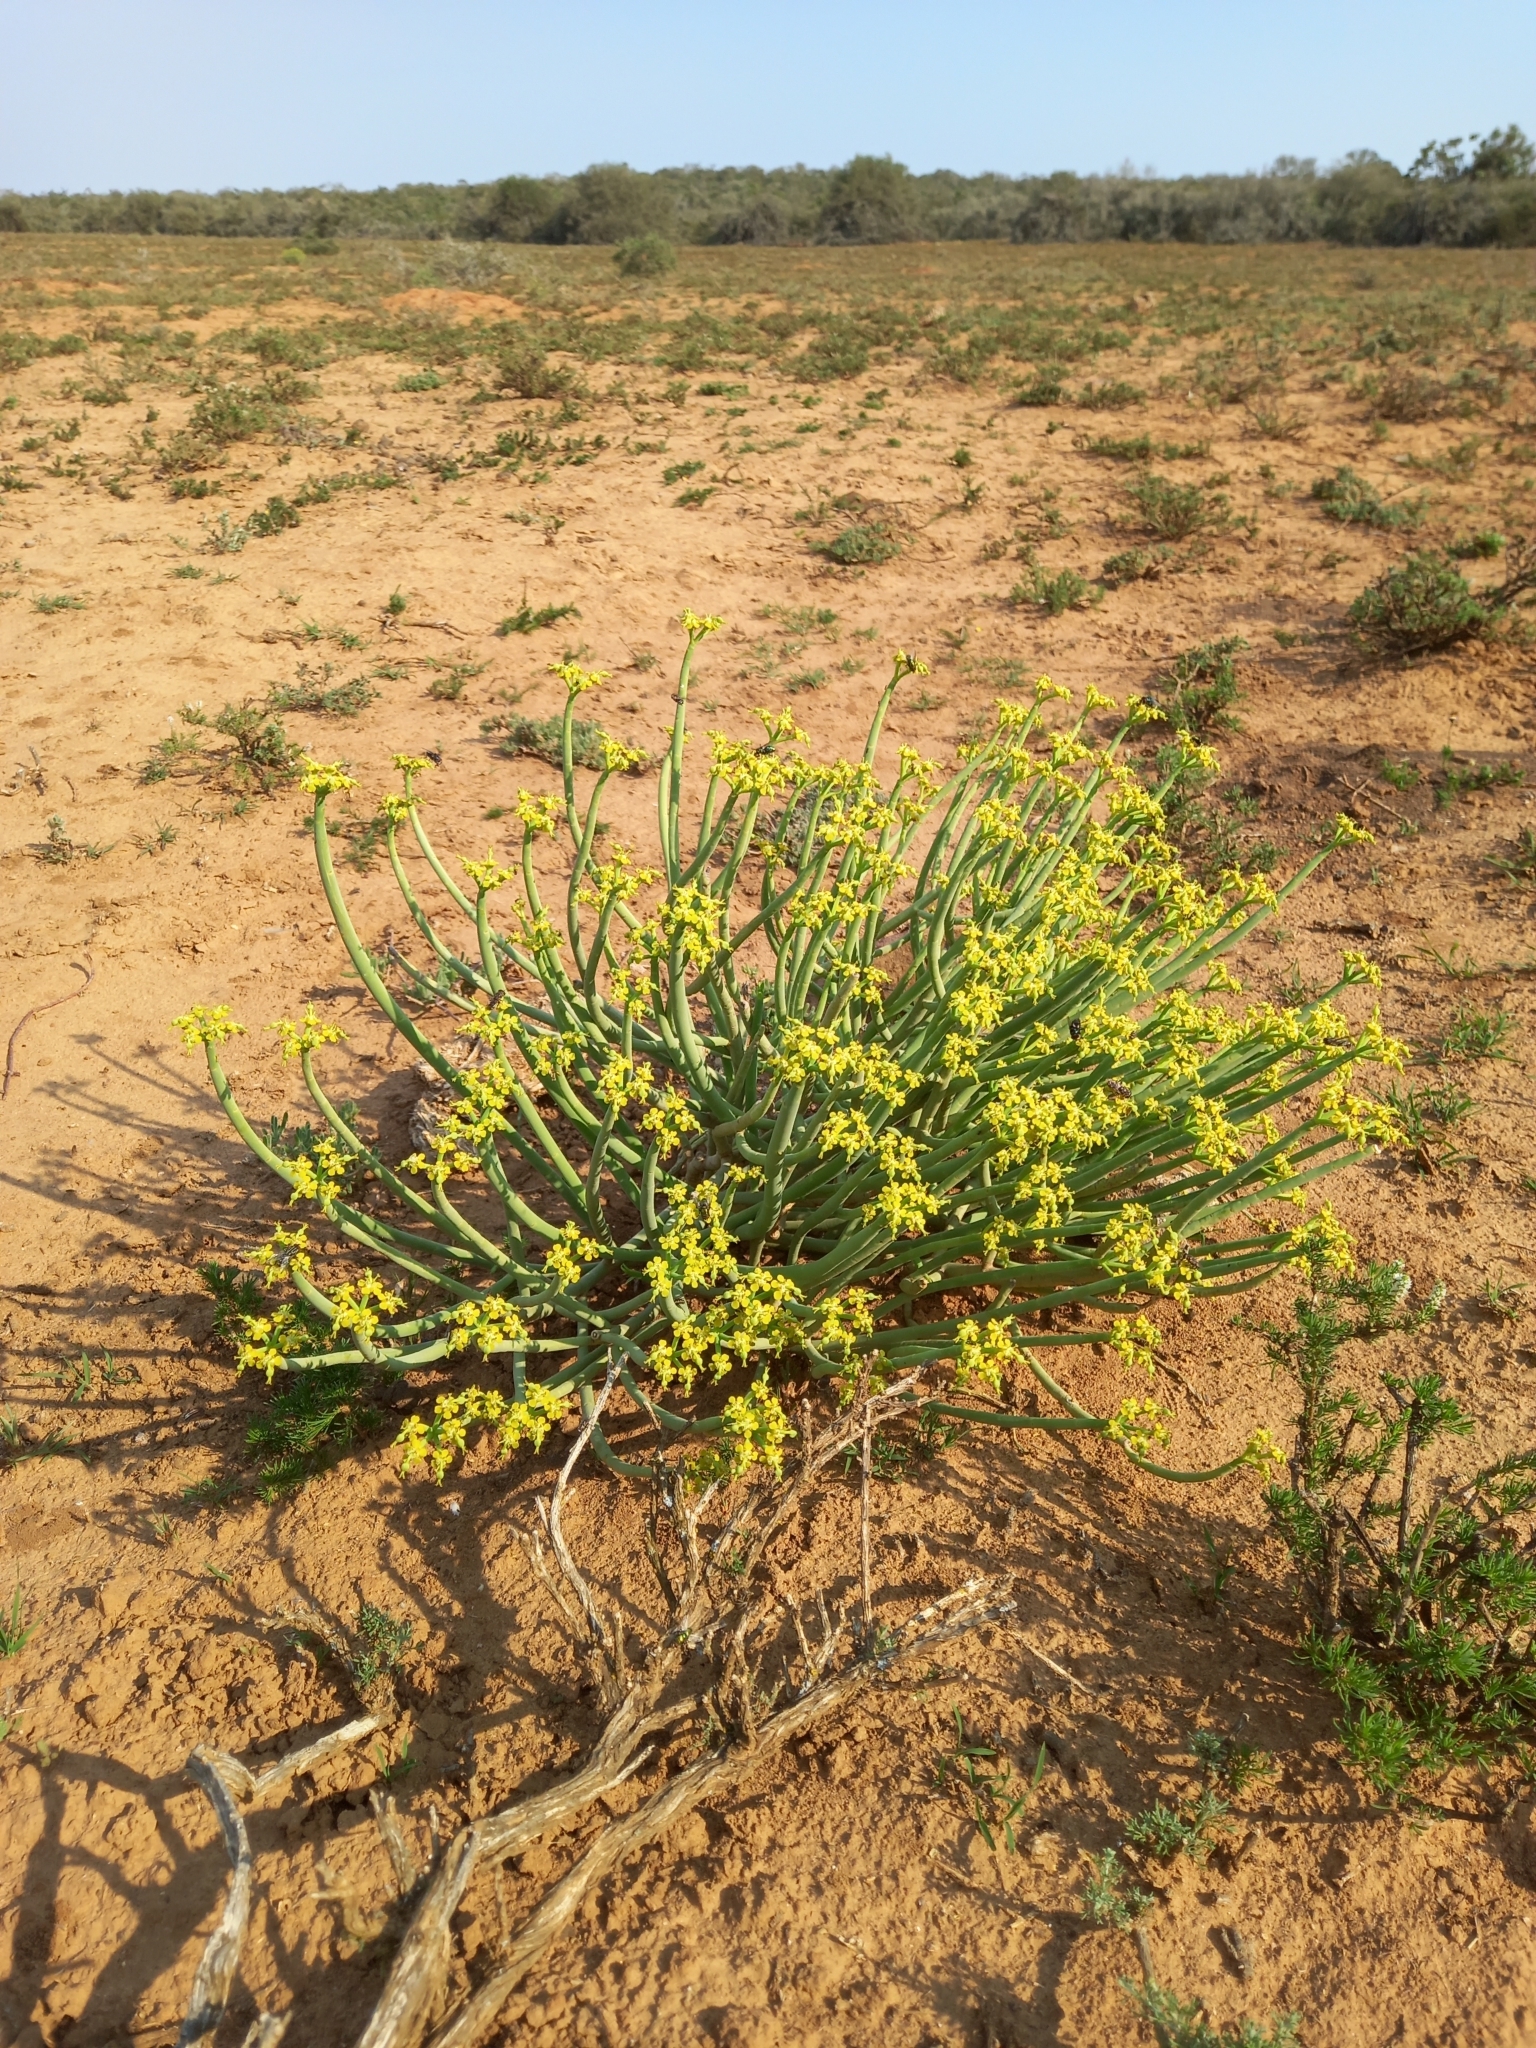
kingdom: Plantae
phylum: Tracheophyta
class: Magnoliopsida
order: Malpighiales
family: Euphorbiaceae
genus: Euphorbia
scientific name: Euphorbia mauritanica
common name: Jackal's-food
